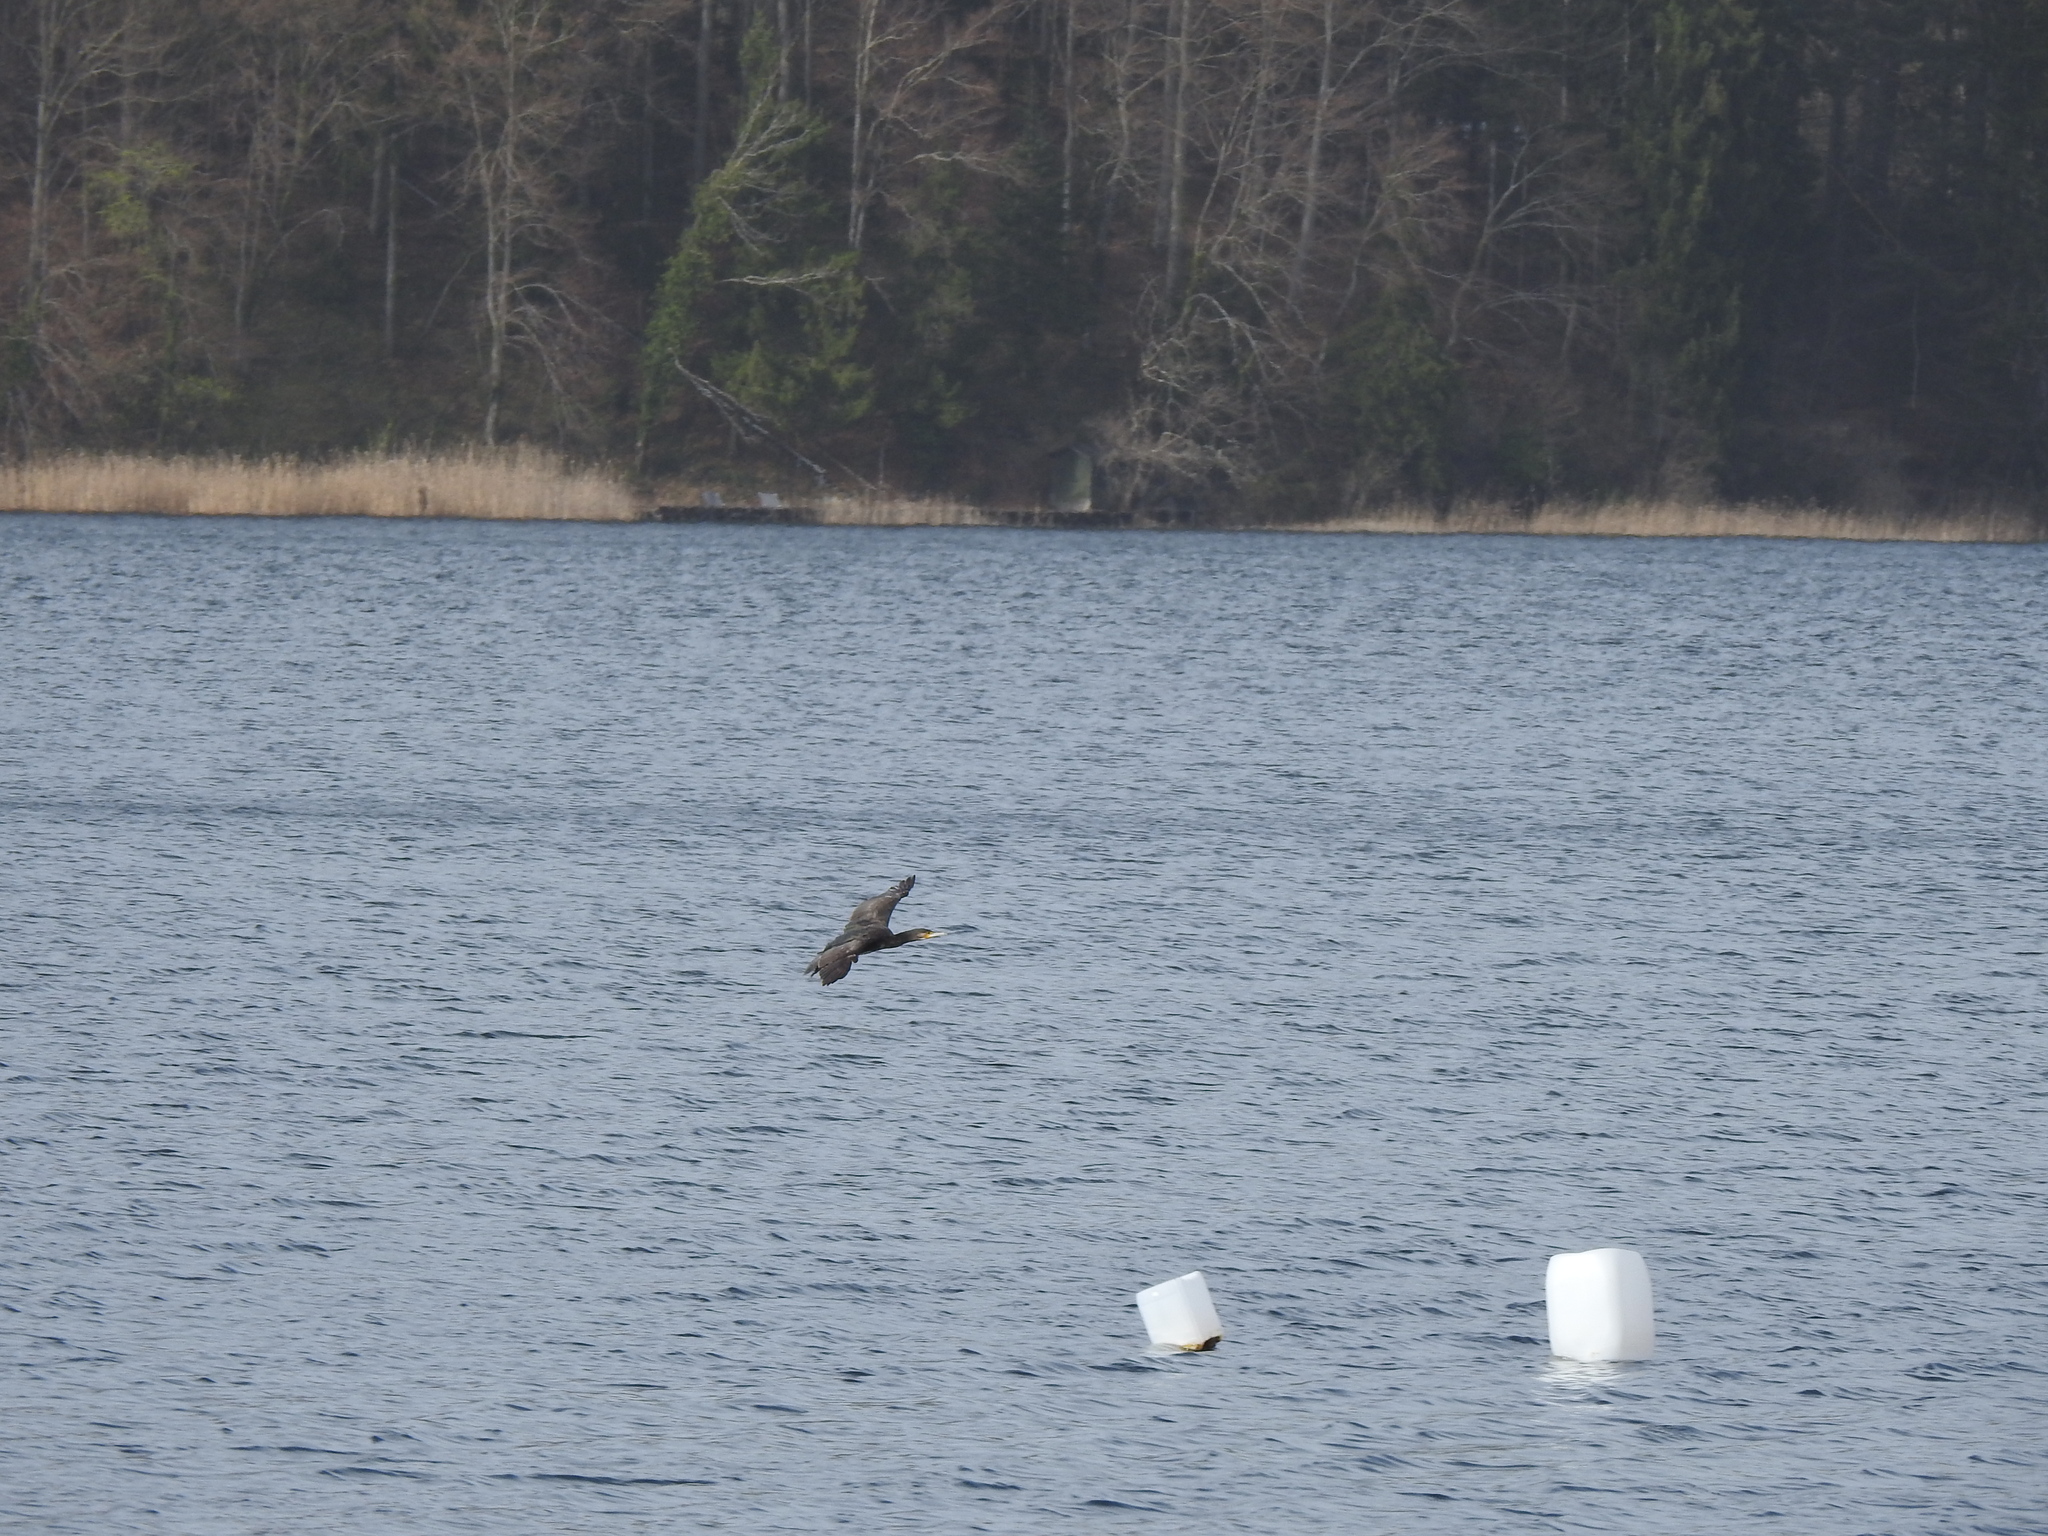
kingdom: Animalia
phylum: Chordata
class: Aves
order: Suliformes
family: Phalacrocoracidae
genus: Phalacrocorax
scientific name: Phalacrocorax carbo
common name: Great cormorant
